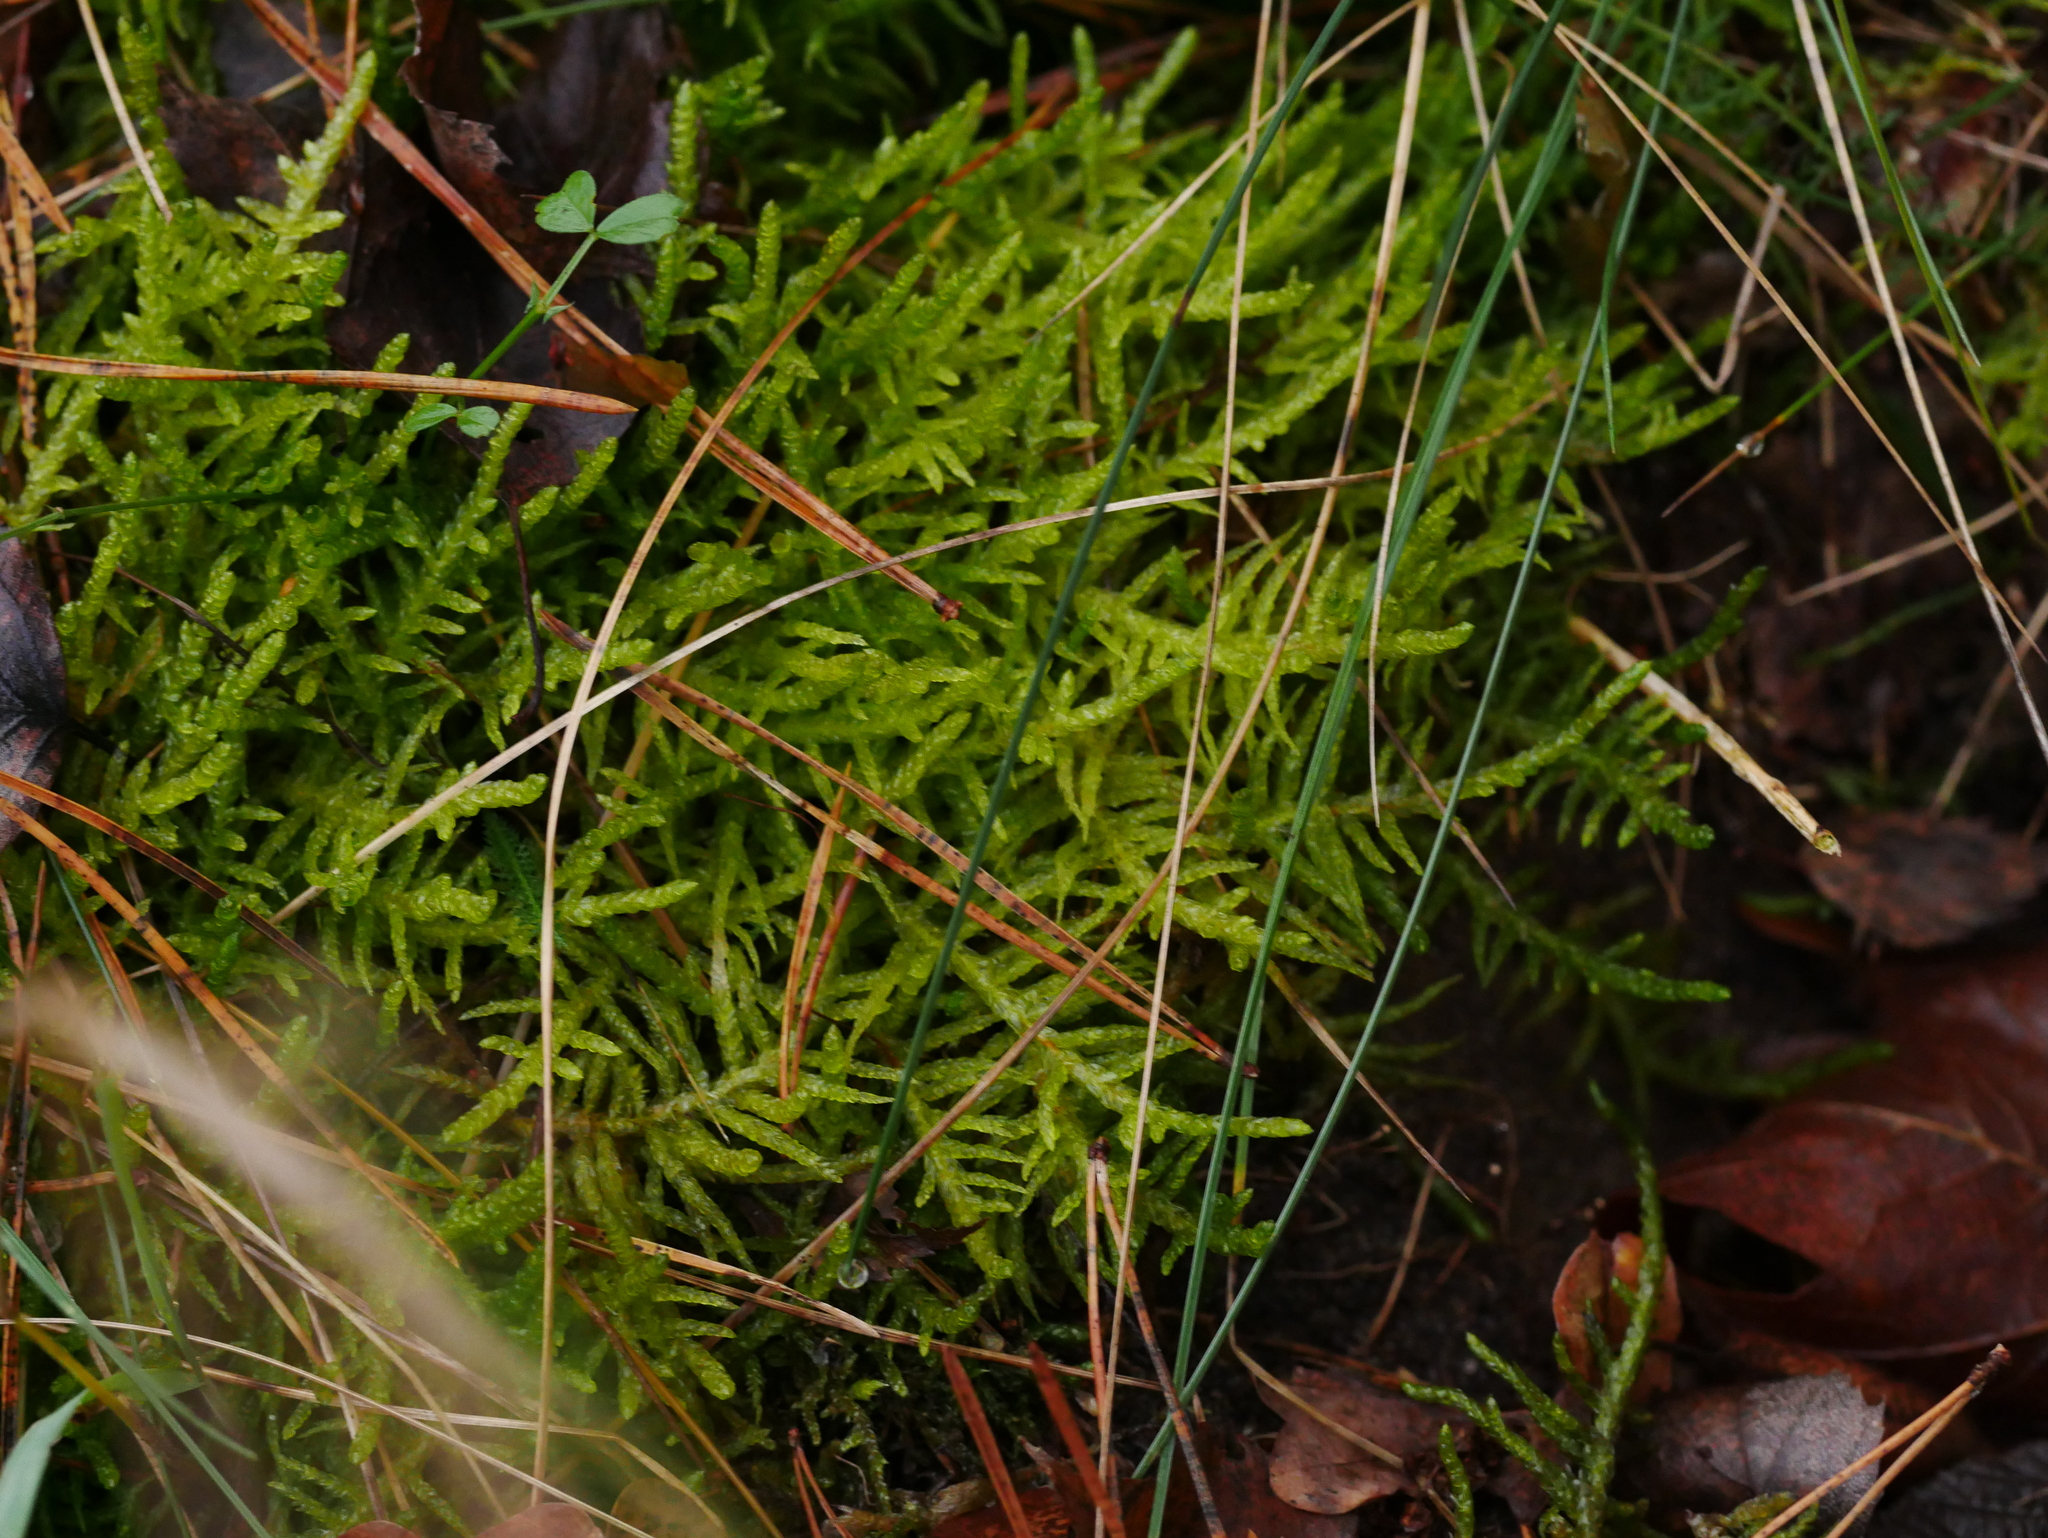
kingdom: Plantae
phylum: Bryophyta
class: Bryopsida
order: Hypnales
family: Brachytheciaceae
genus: Pseudoscleropodium
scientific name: Pseudoscleropodium purum
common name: Neat feather-moss
